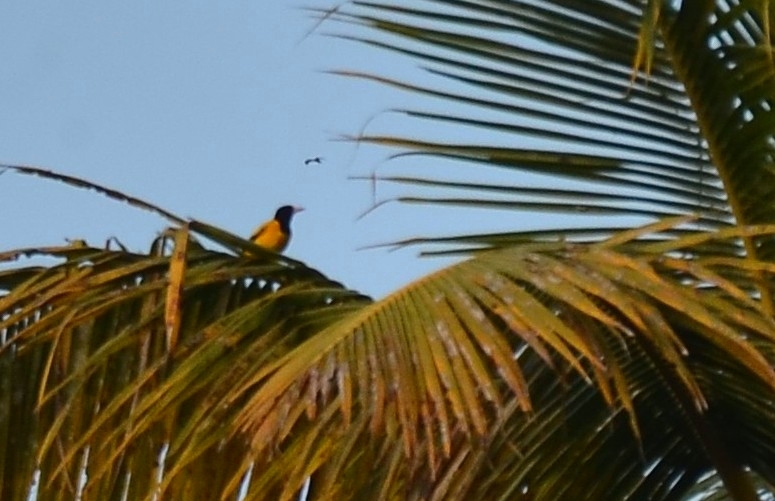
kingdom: Animalia
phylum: Chordata
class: Aves
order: Passeriformes
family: Oriolidae
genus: Oriolus
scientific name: Oriolus xanthornus
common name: Black-hooded oriole
